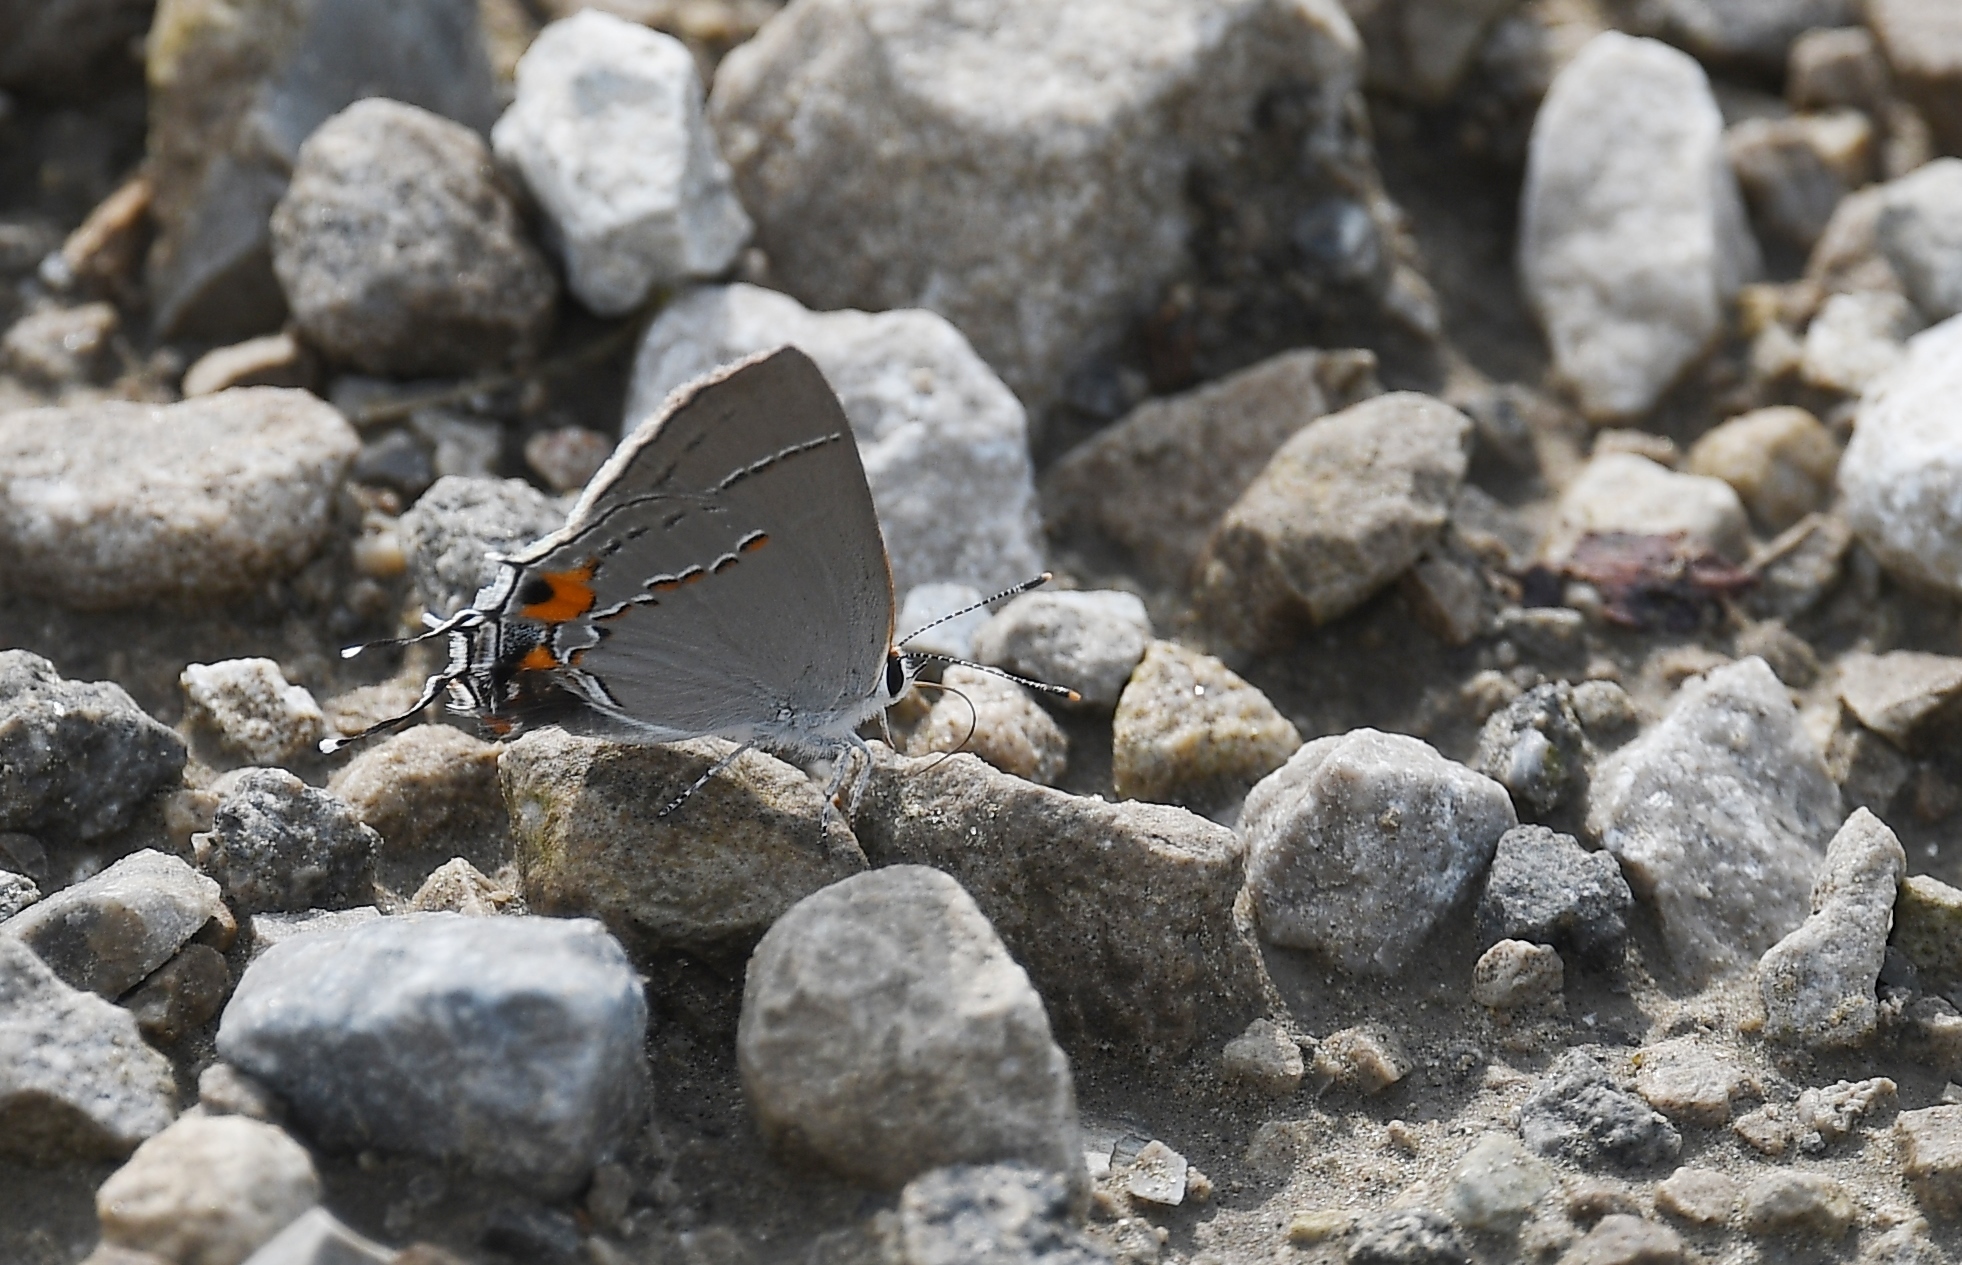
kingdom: Animalia
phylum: Arthropoda
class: Insecta
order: Lepidoptera
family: Lycaenidae
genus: Strymon
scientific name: Strymon melinus
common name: Gray hairstreak
